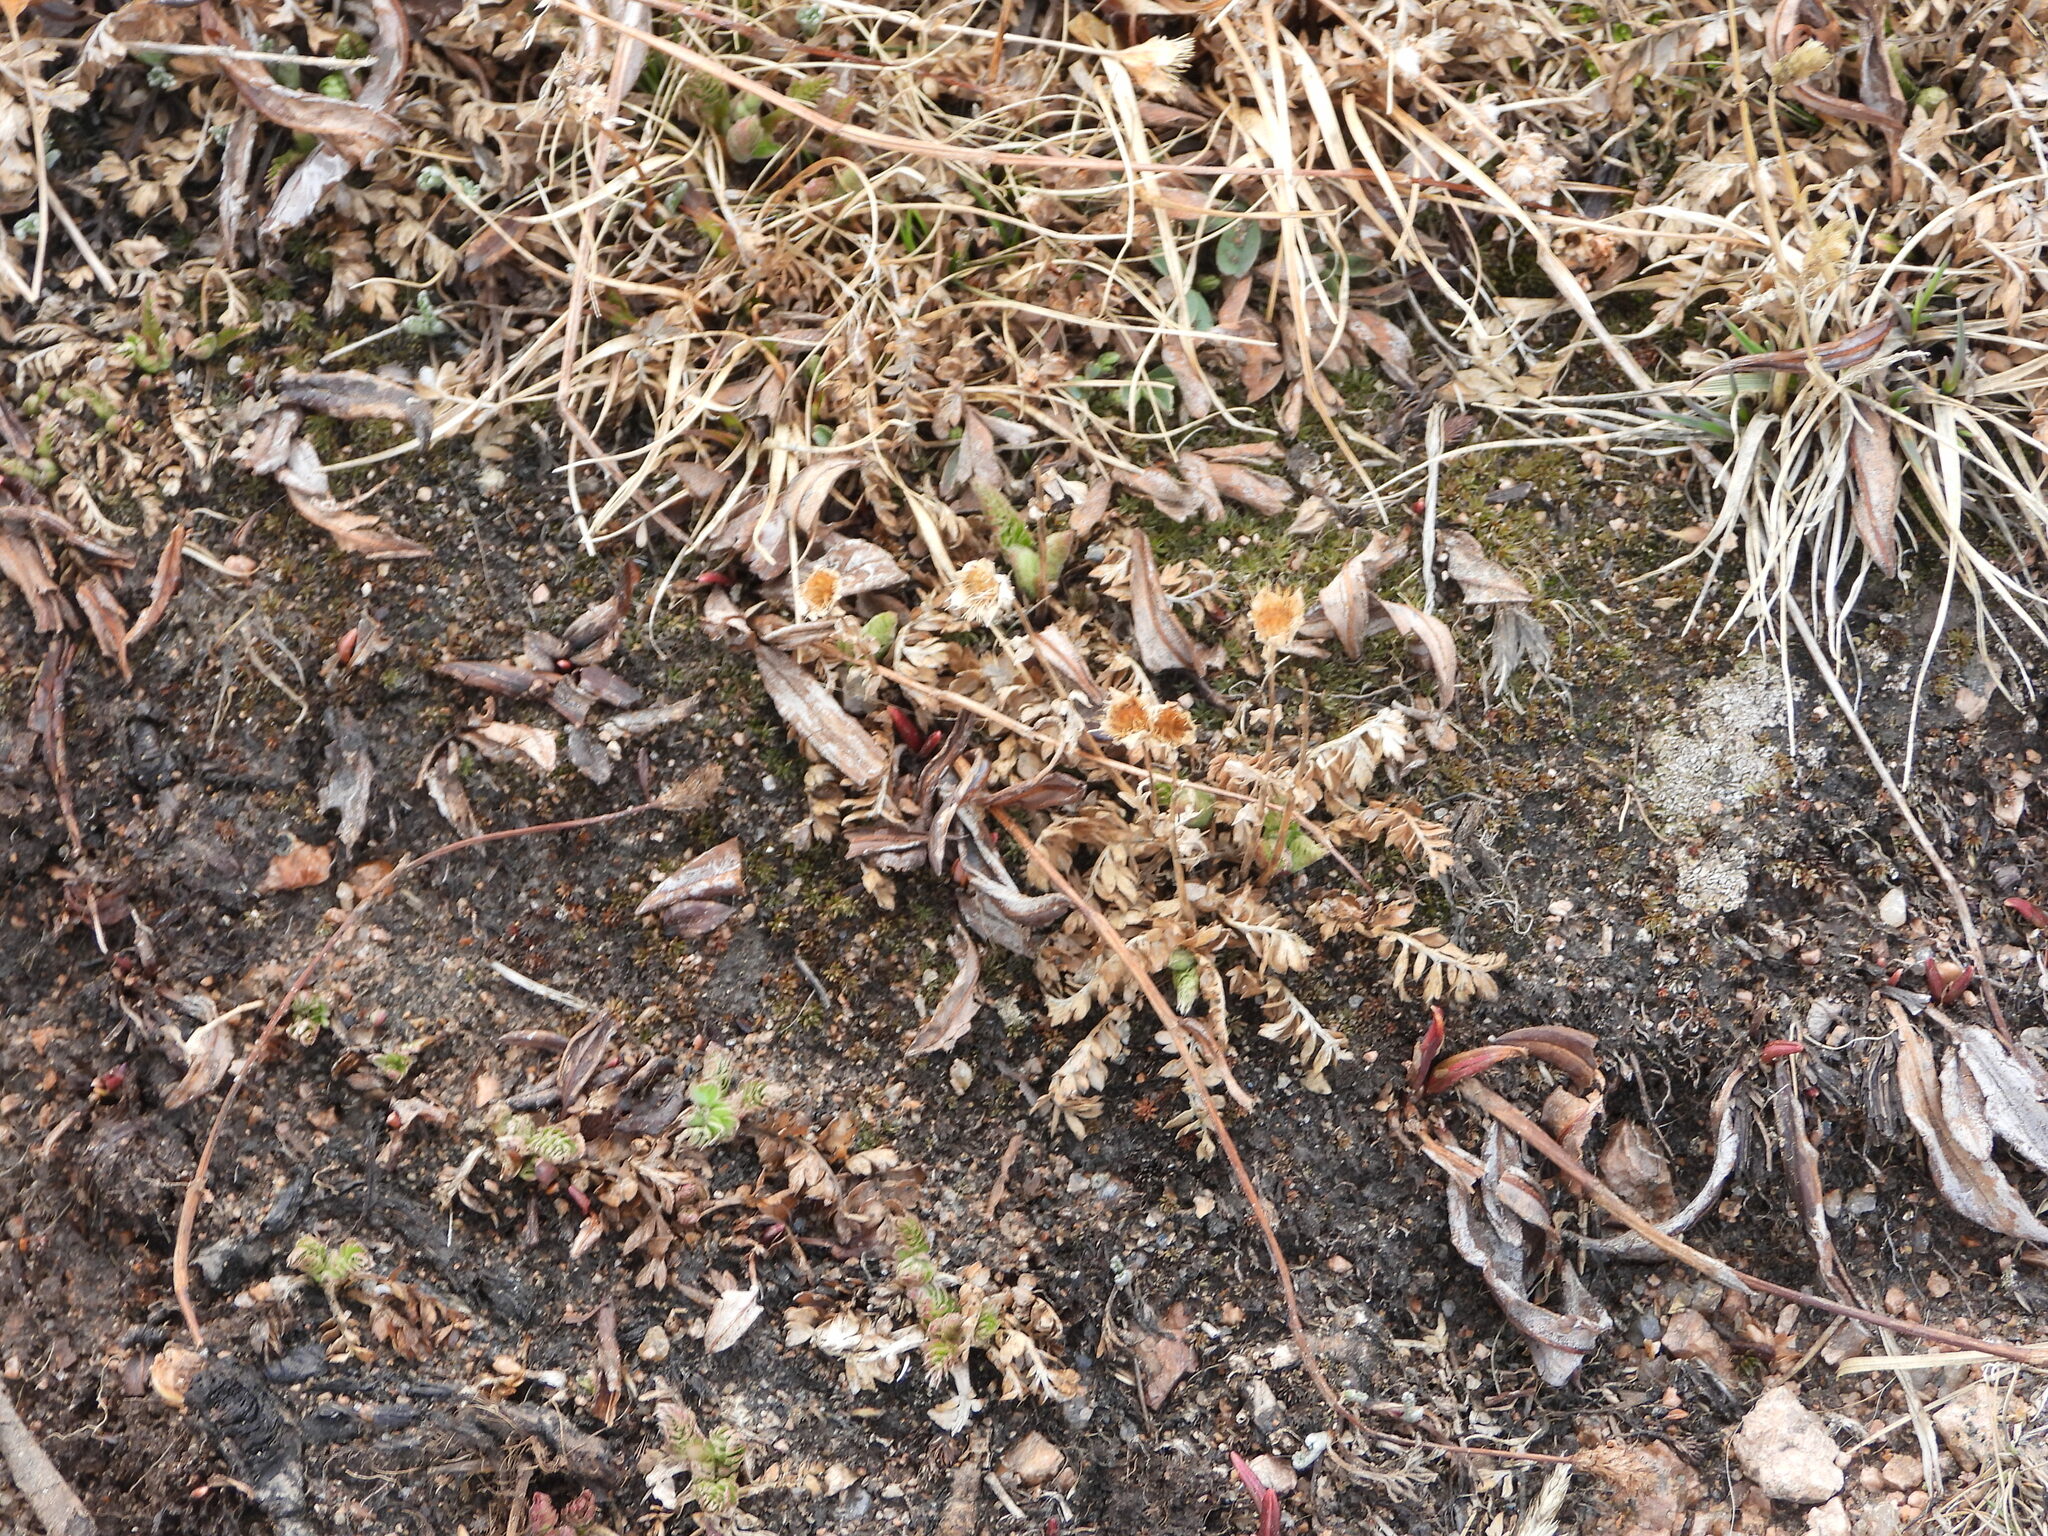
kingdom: Plantae
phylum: Tracheophyta
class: Magnoliopsida
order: Rosales
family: Rosaceae
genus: Geum
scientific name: Geum rossii
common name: Alpine avens
